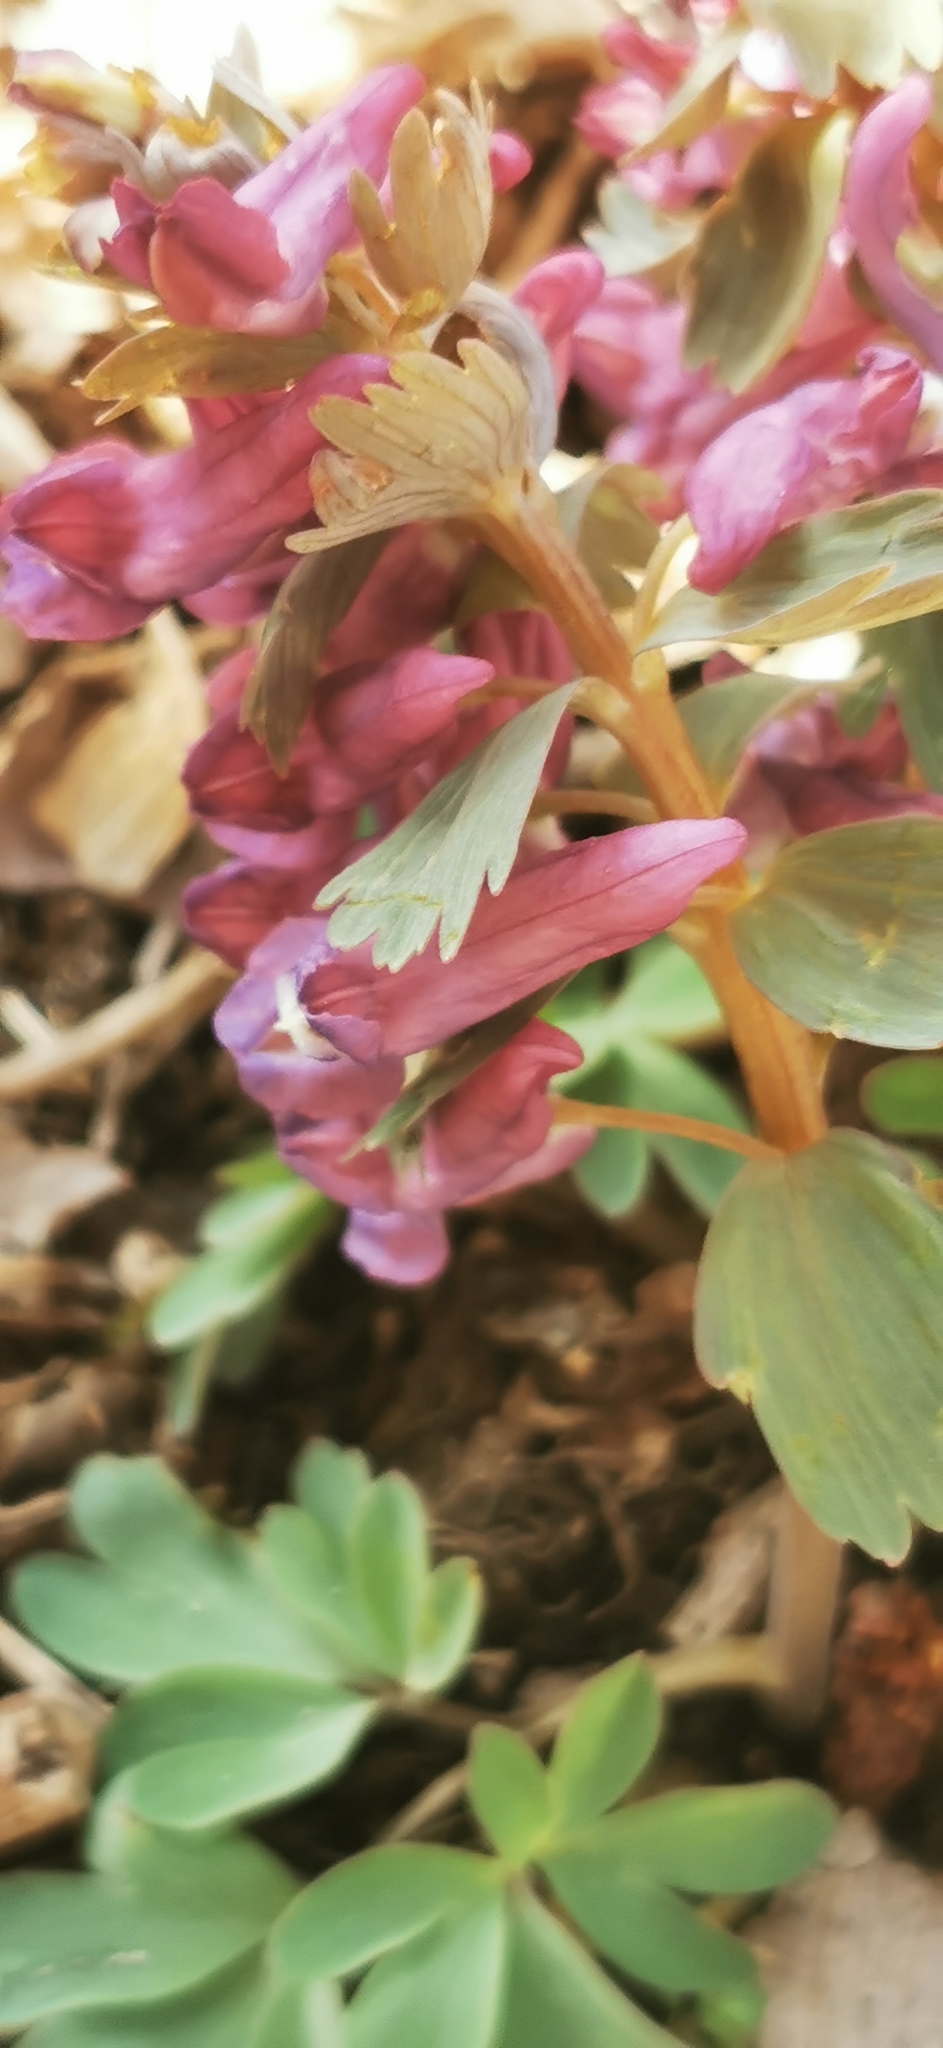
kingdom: Plantae
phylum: Tracheophyta
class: Magnoliopsida
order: Ranunculales
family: Papaveraceae
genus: Corydalis
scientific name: Corydalis solida
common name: Bird-in-a-bush
